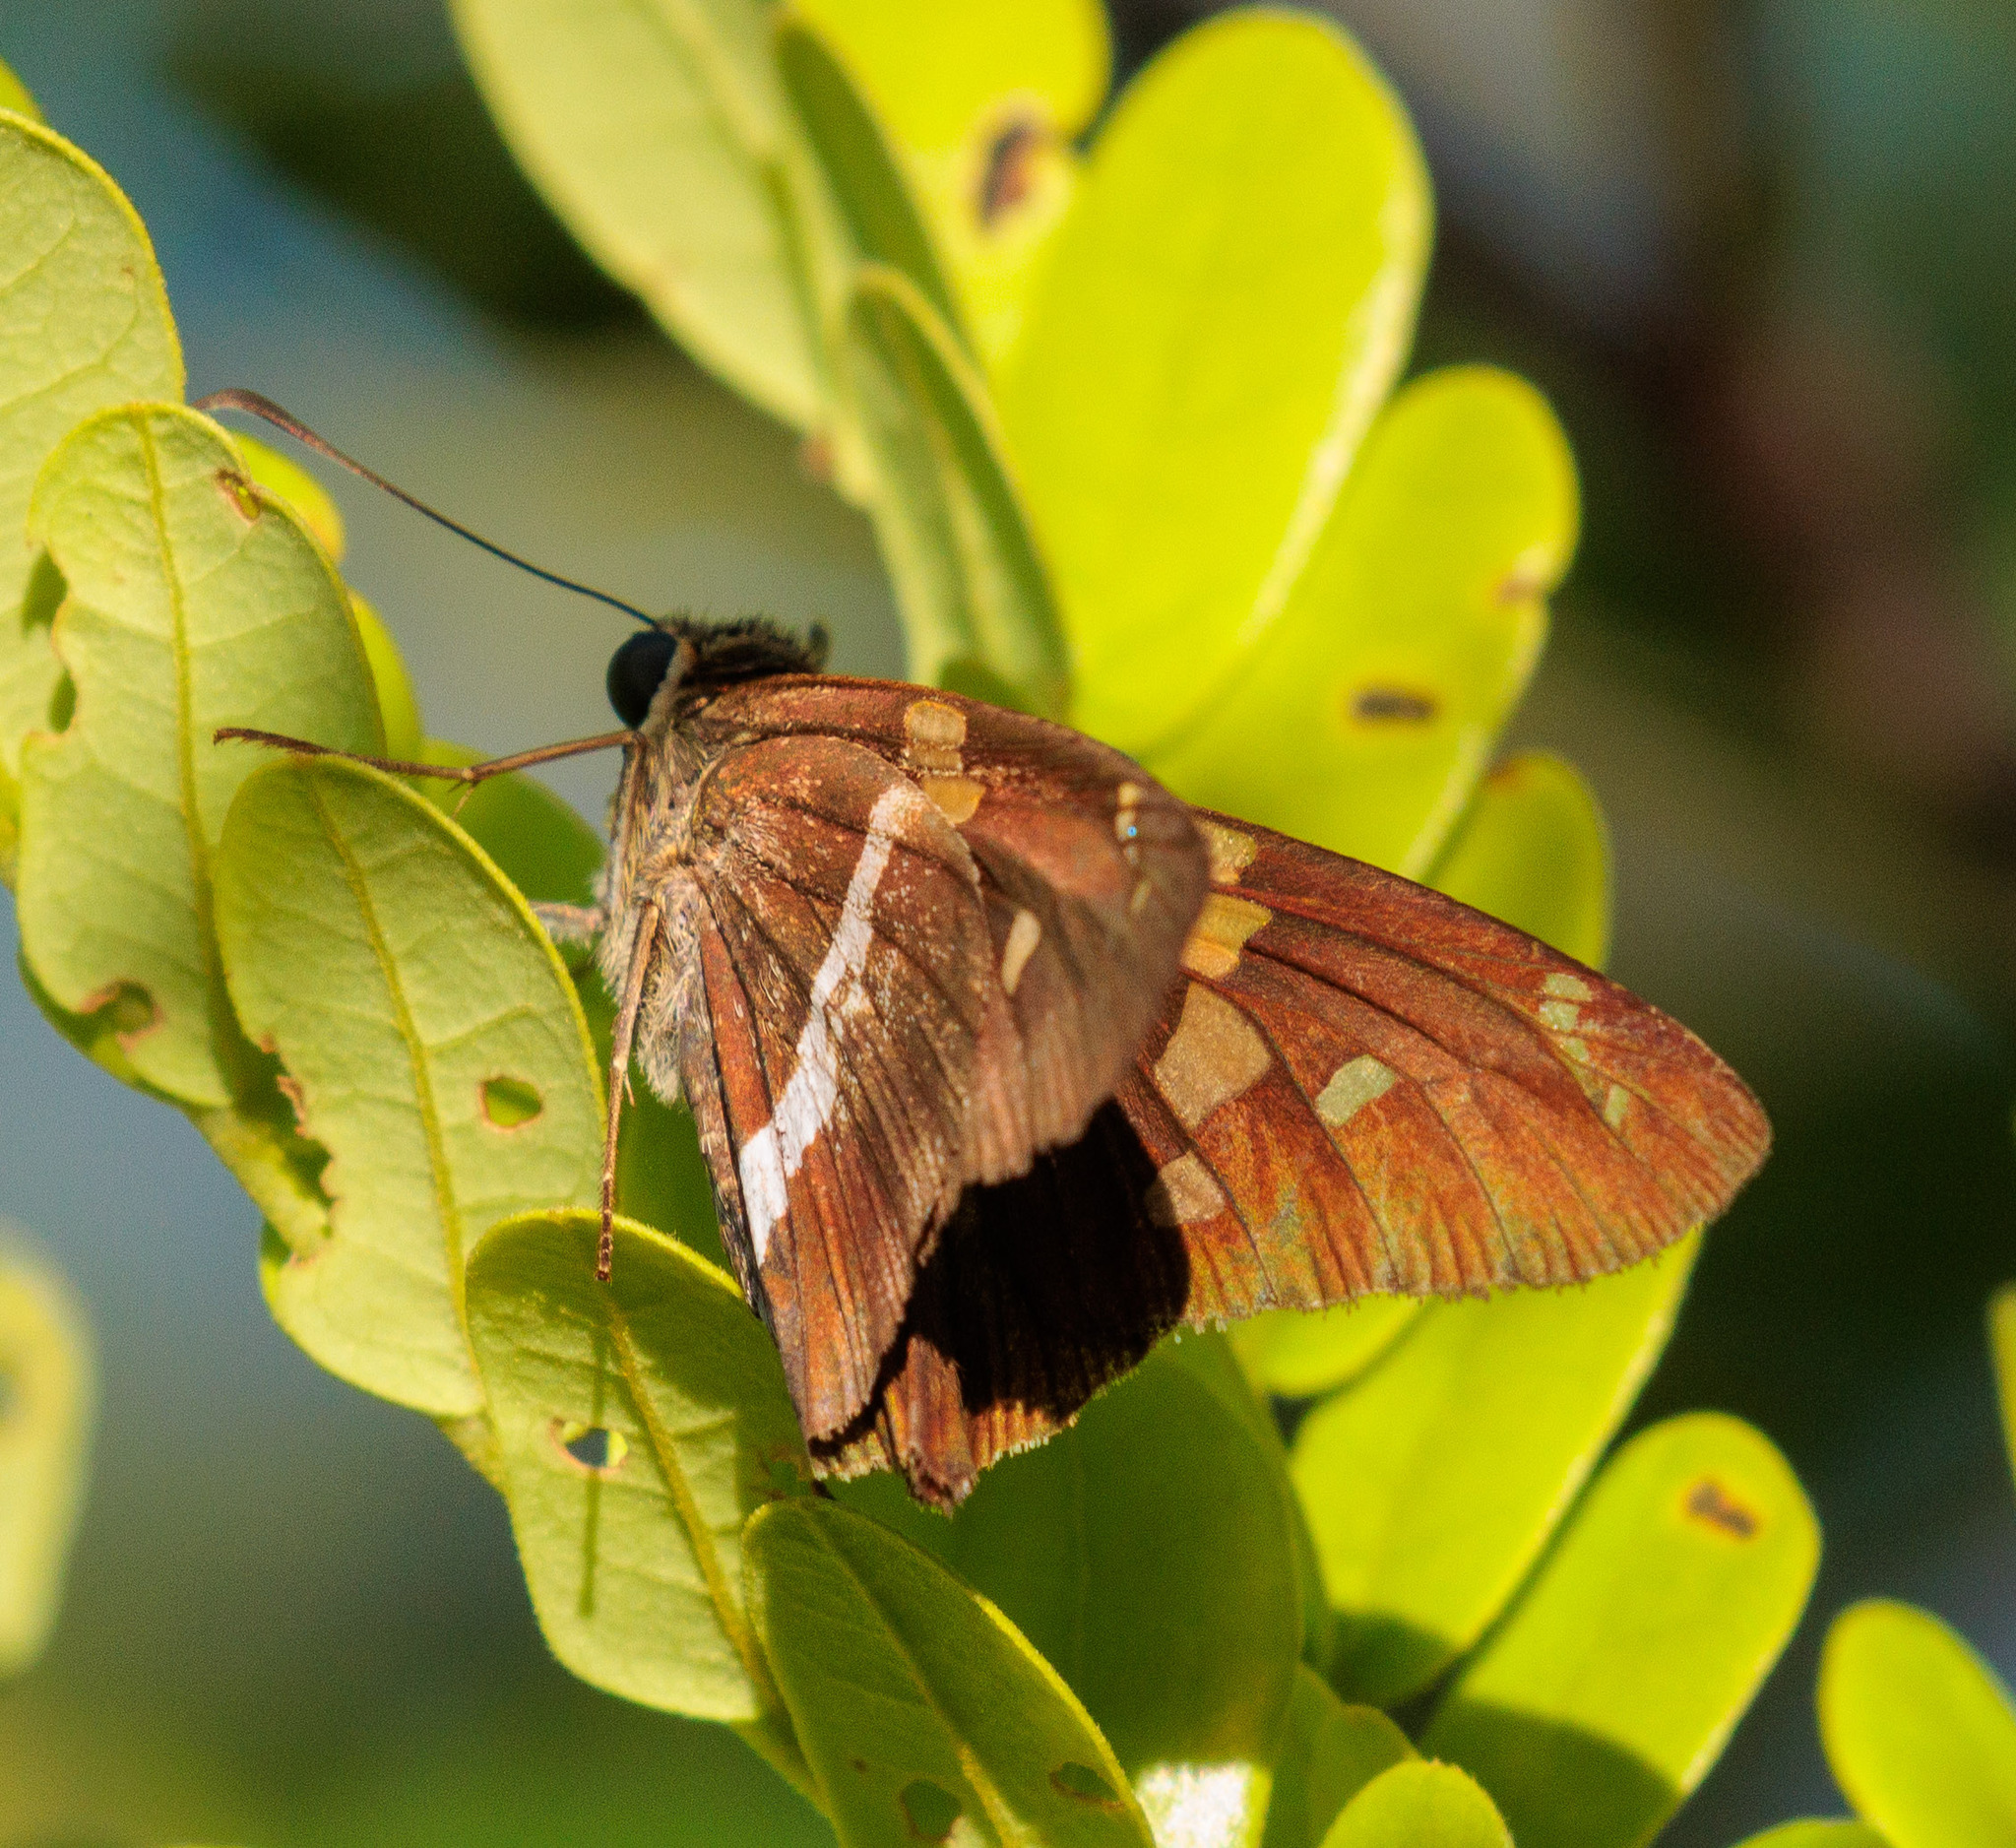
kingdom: Animalia
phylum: Arthropoda
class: Insecta
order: Lepidoptera
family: Hesperiidae
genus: Aguna
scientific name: Aguna asander
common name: Gold-spotted aguna
